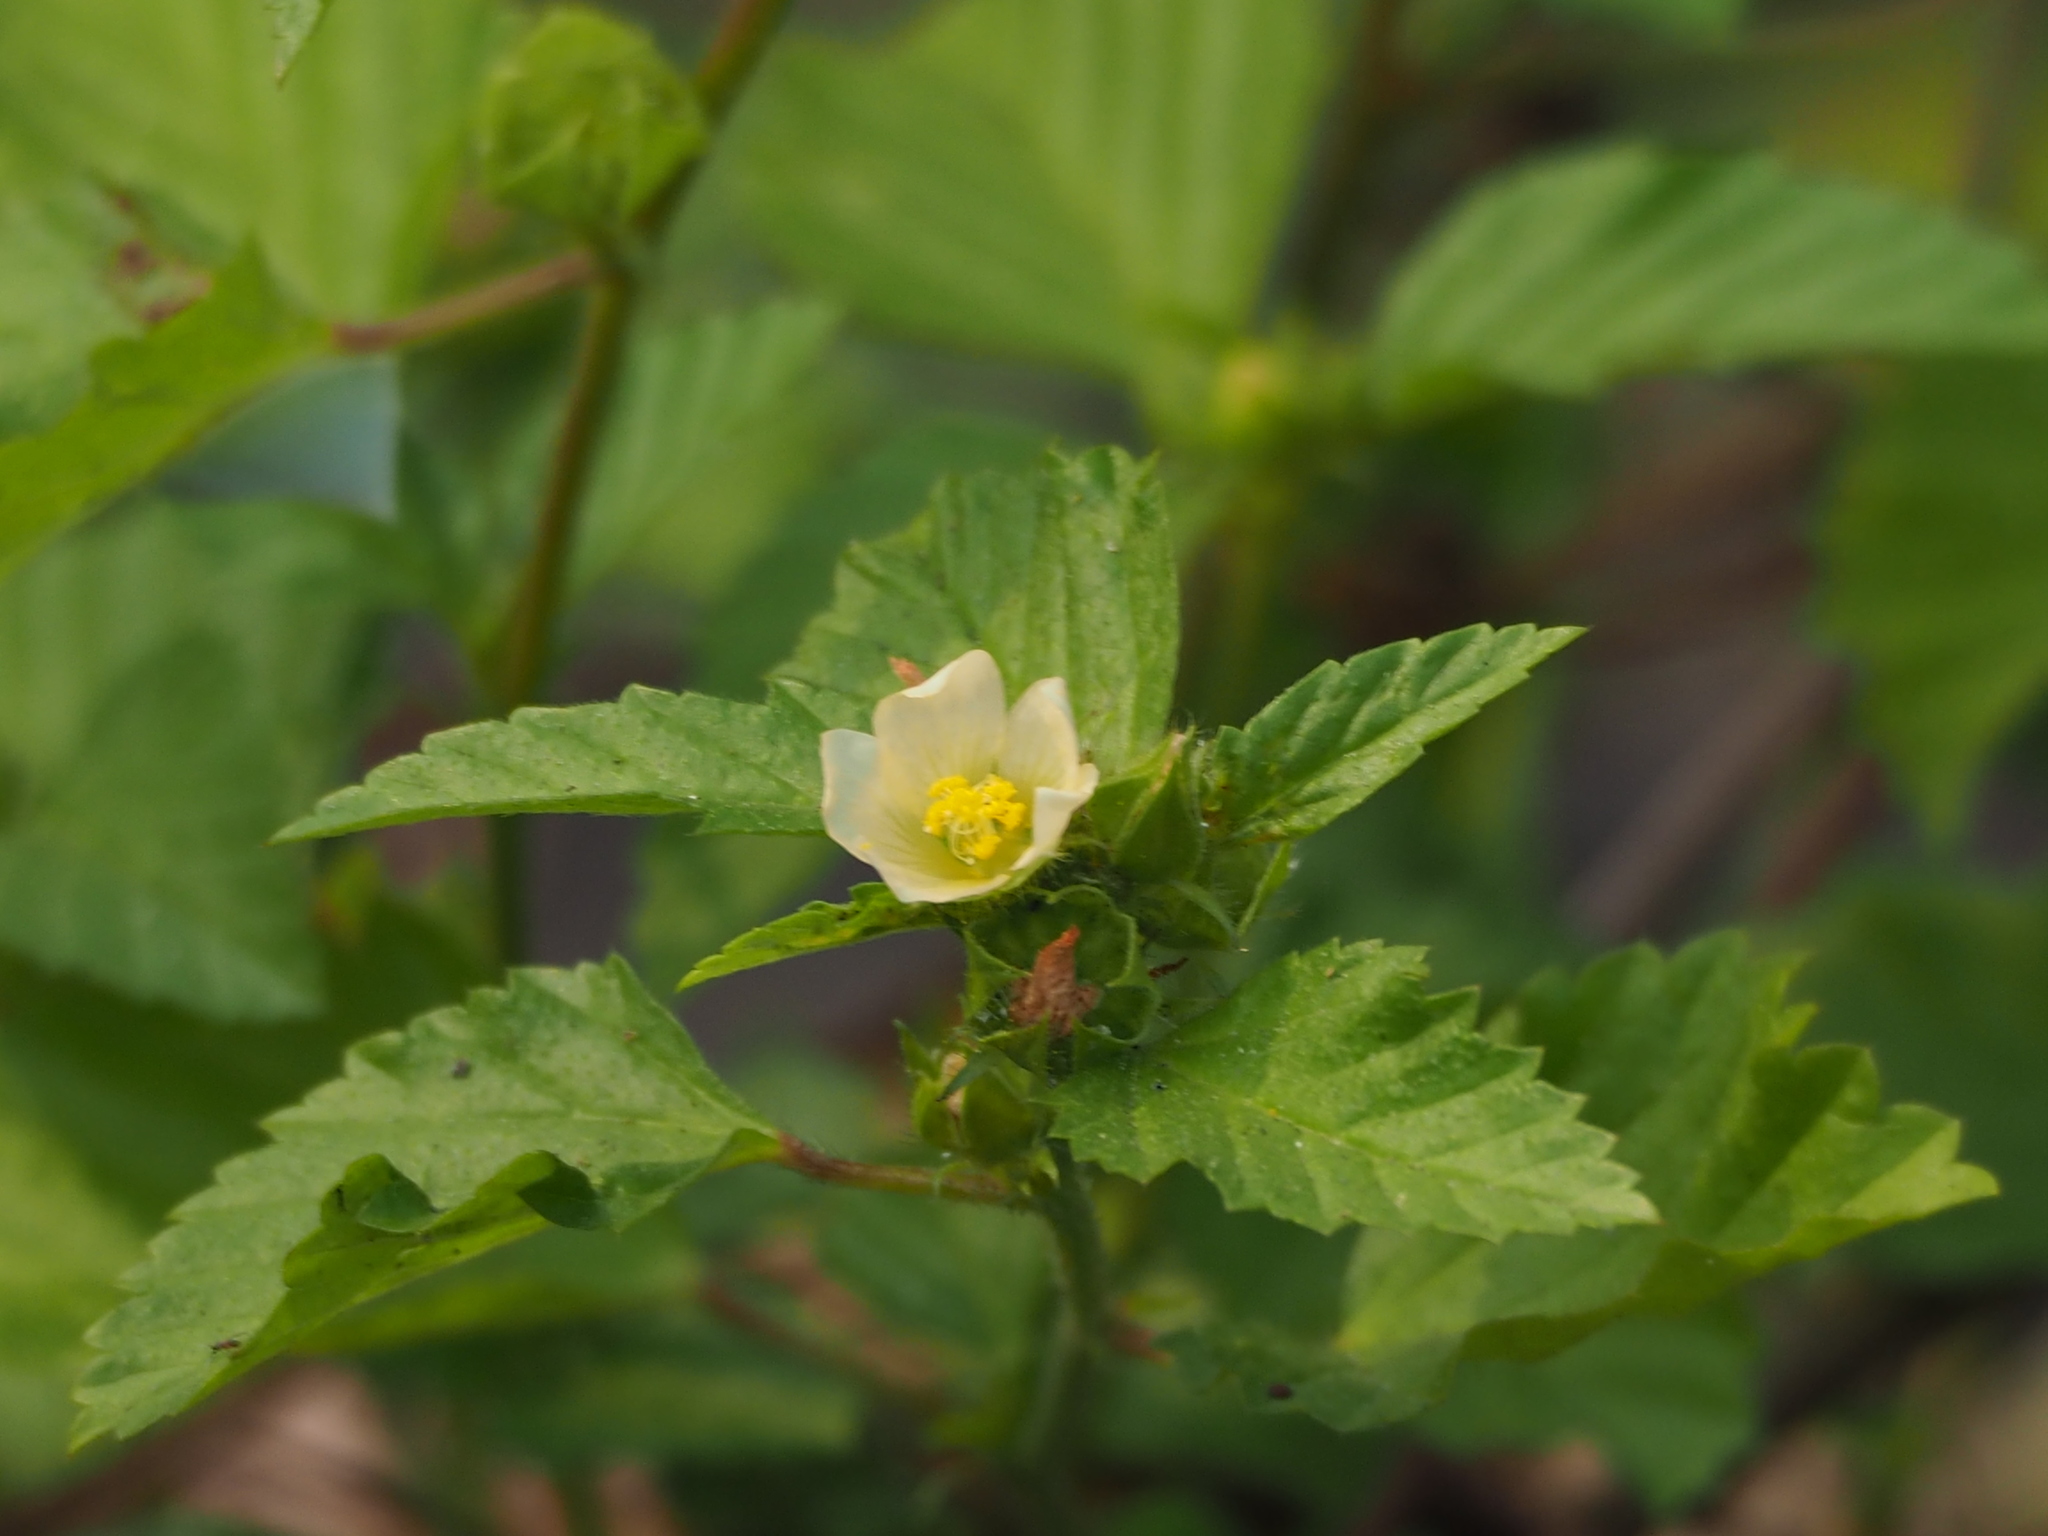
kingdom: Plantae
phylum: Tracheophyta
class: Magnoliopsida
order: Malvales
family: Malvaceae
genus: Malvastrum
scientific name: Malvastrum coromandelianum
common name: Threelobe false mallow
